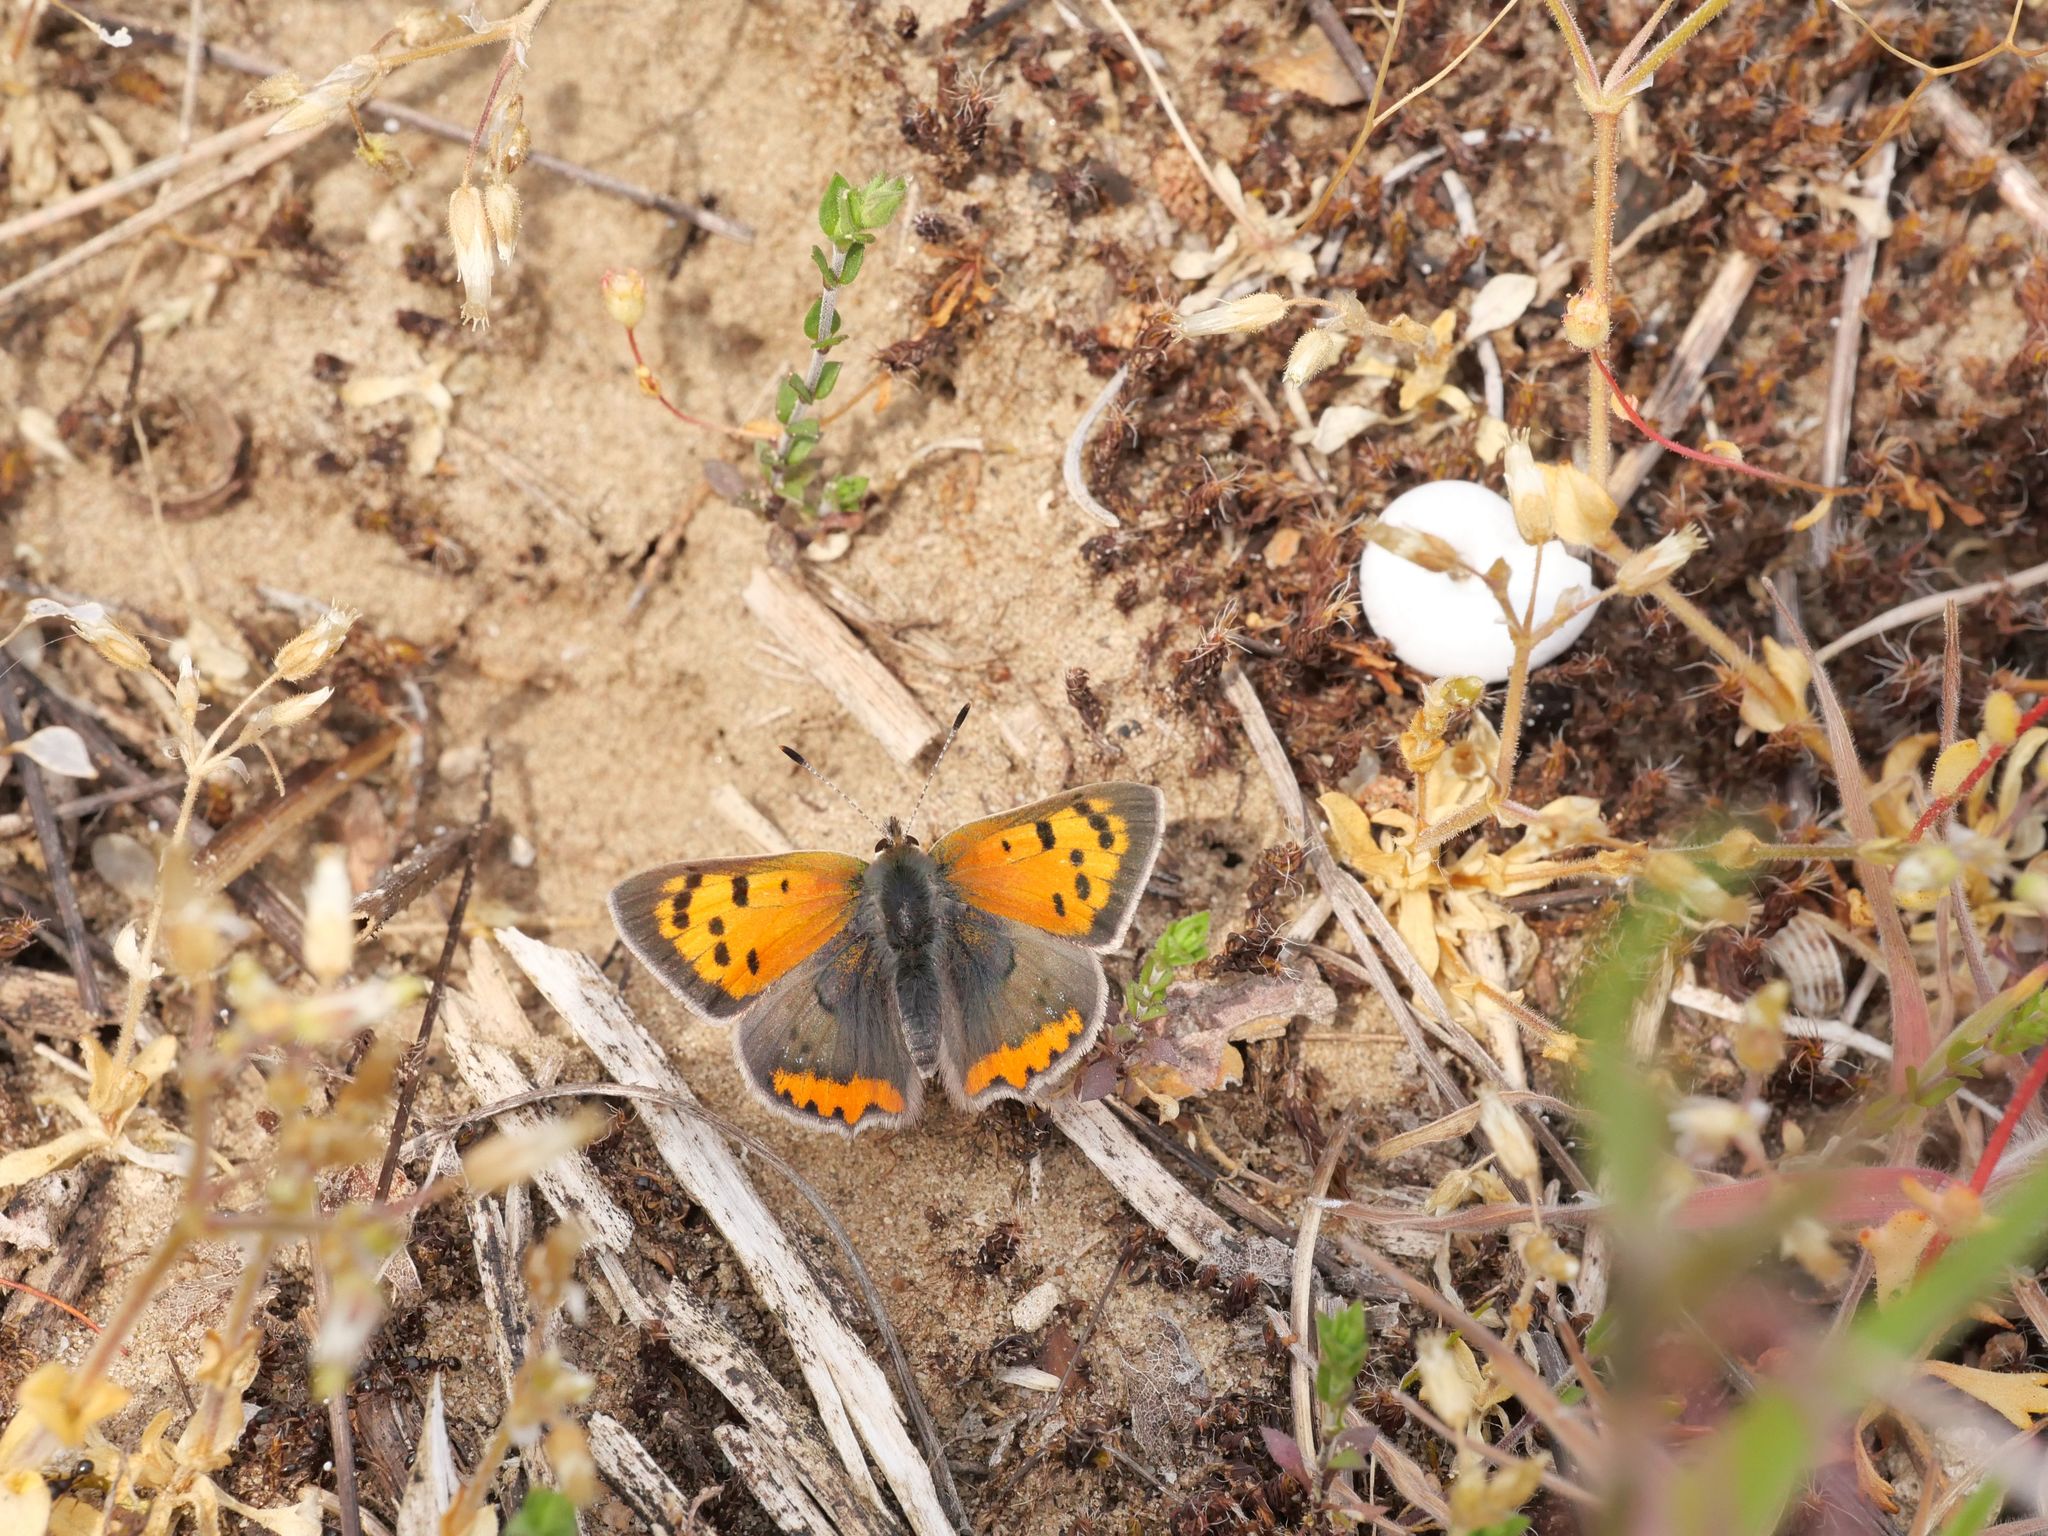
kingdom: Animalia
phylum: Arthropoda
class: Insecta
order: Lepidoptera
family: Lycaenidae
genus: Lycaena
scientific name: Lycaena phlaeas
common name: Small copper
